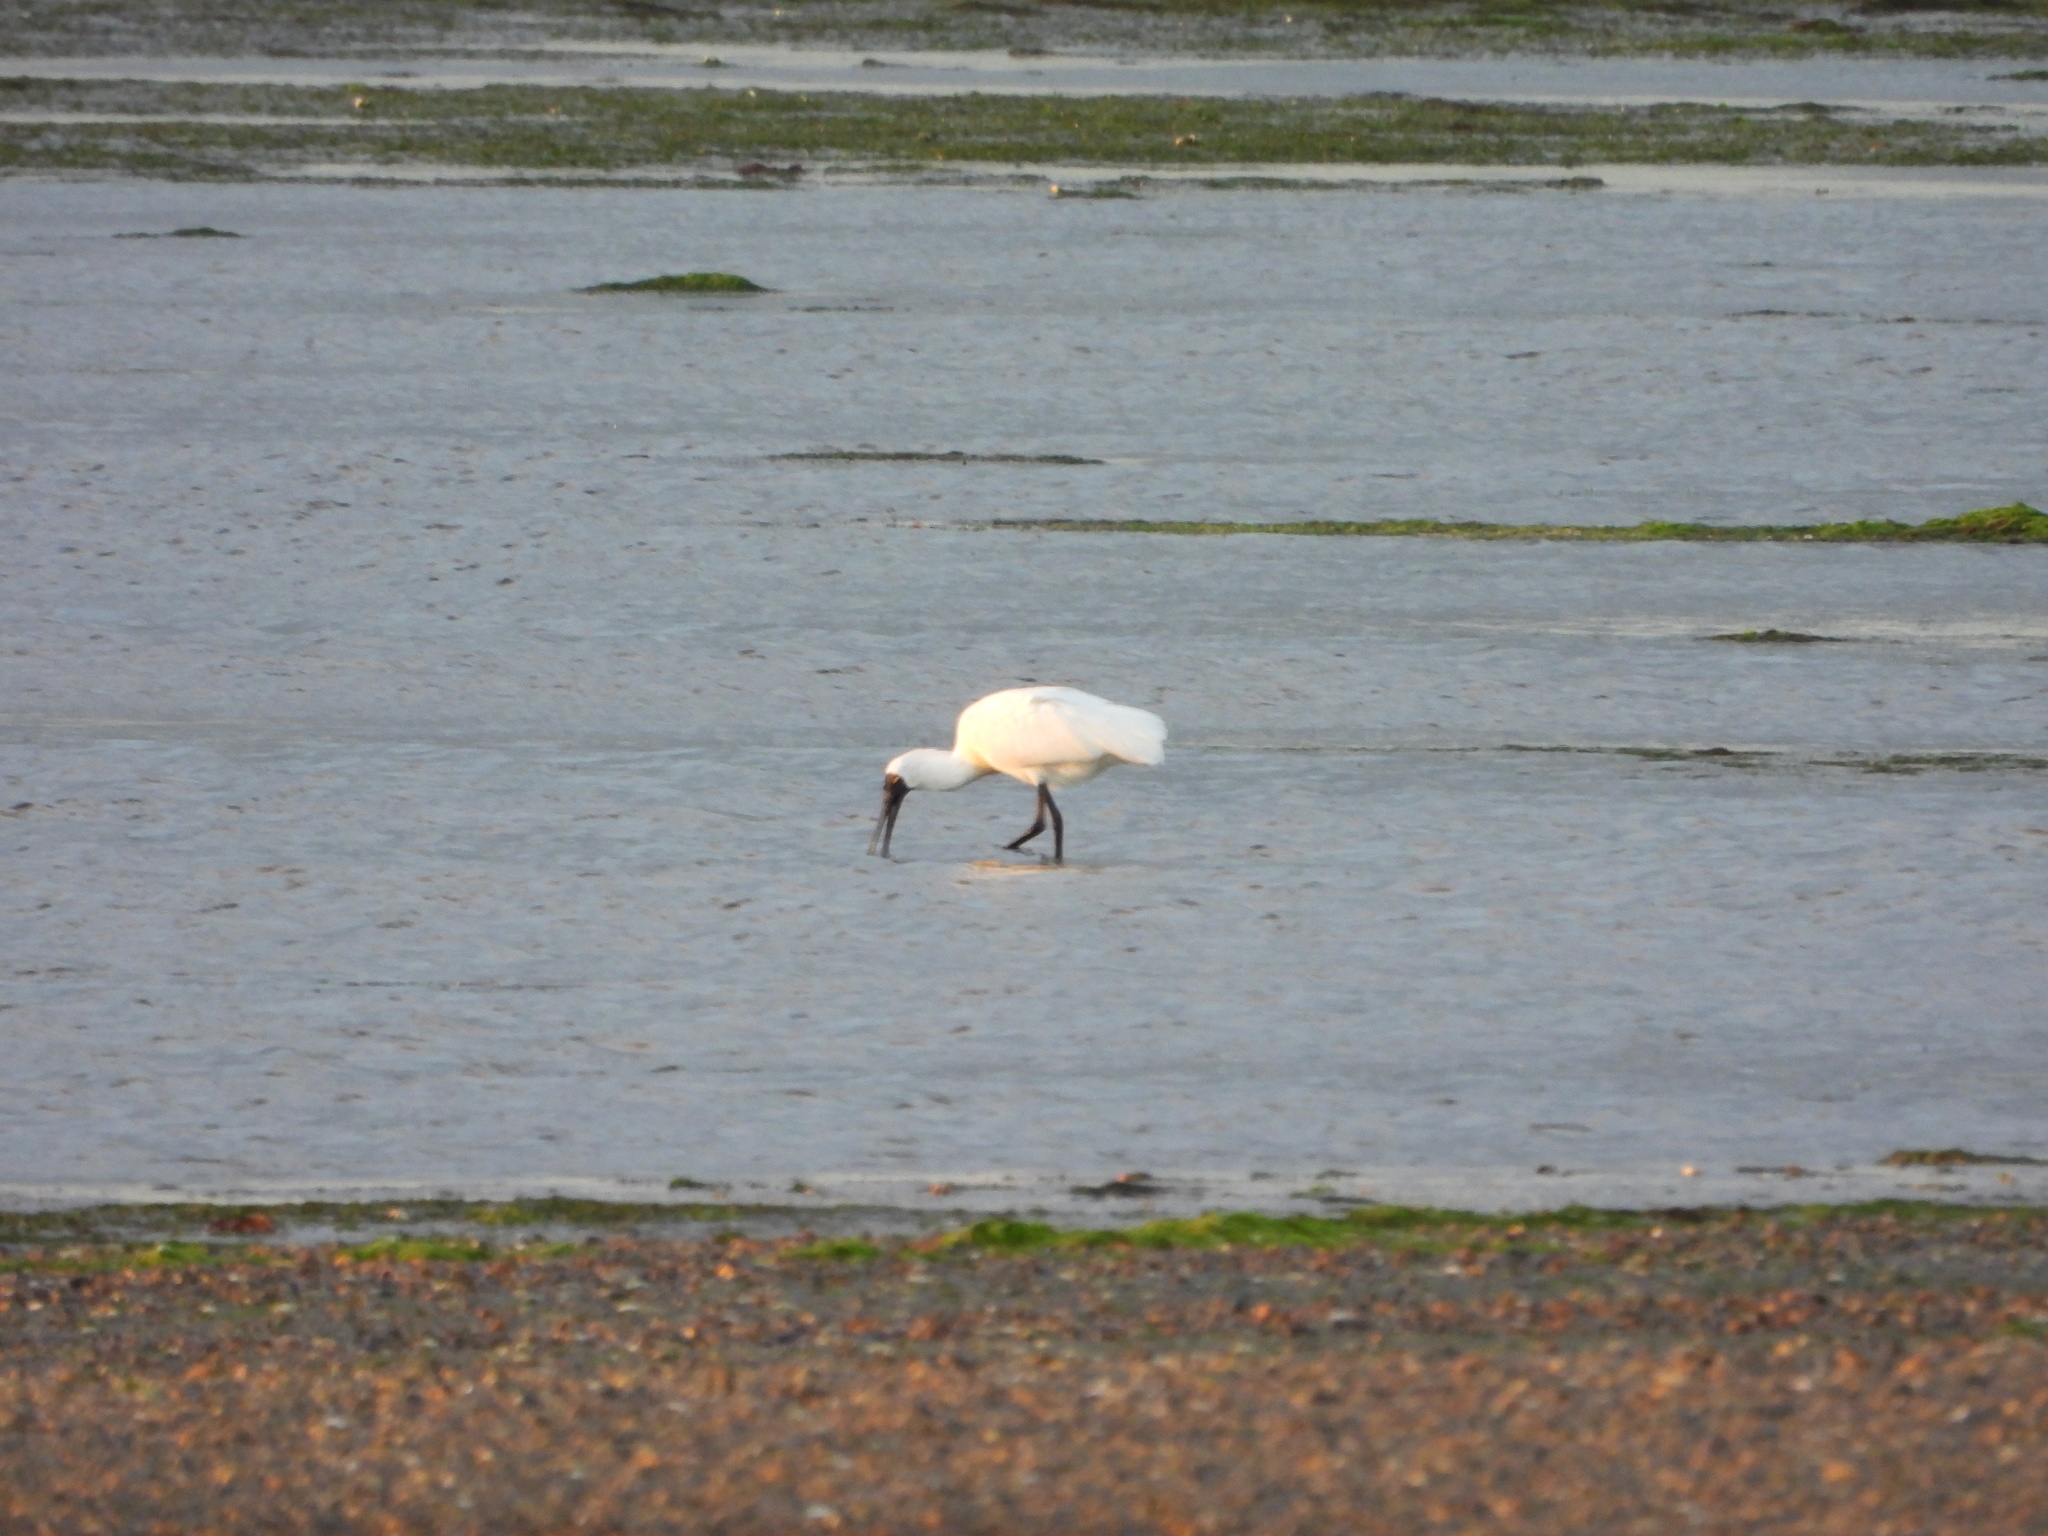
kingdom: Animalia
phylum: Chordata
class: Aves
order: Pelecaniformes
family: Threskiornithidae
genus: Platalea
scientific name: Platalea regia
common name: Royal spoonbill
